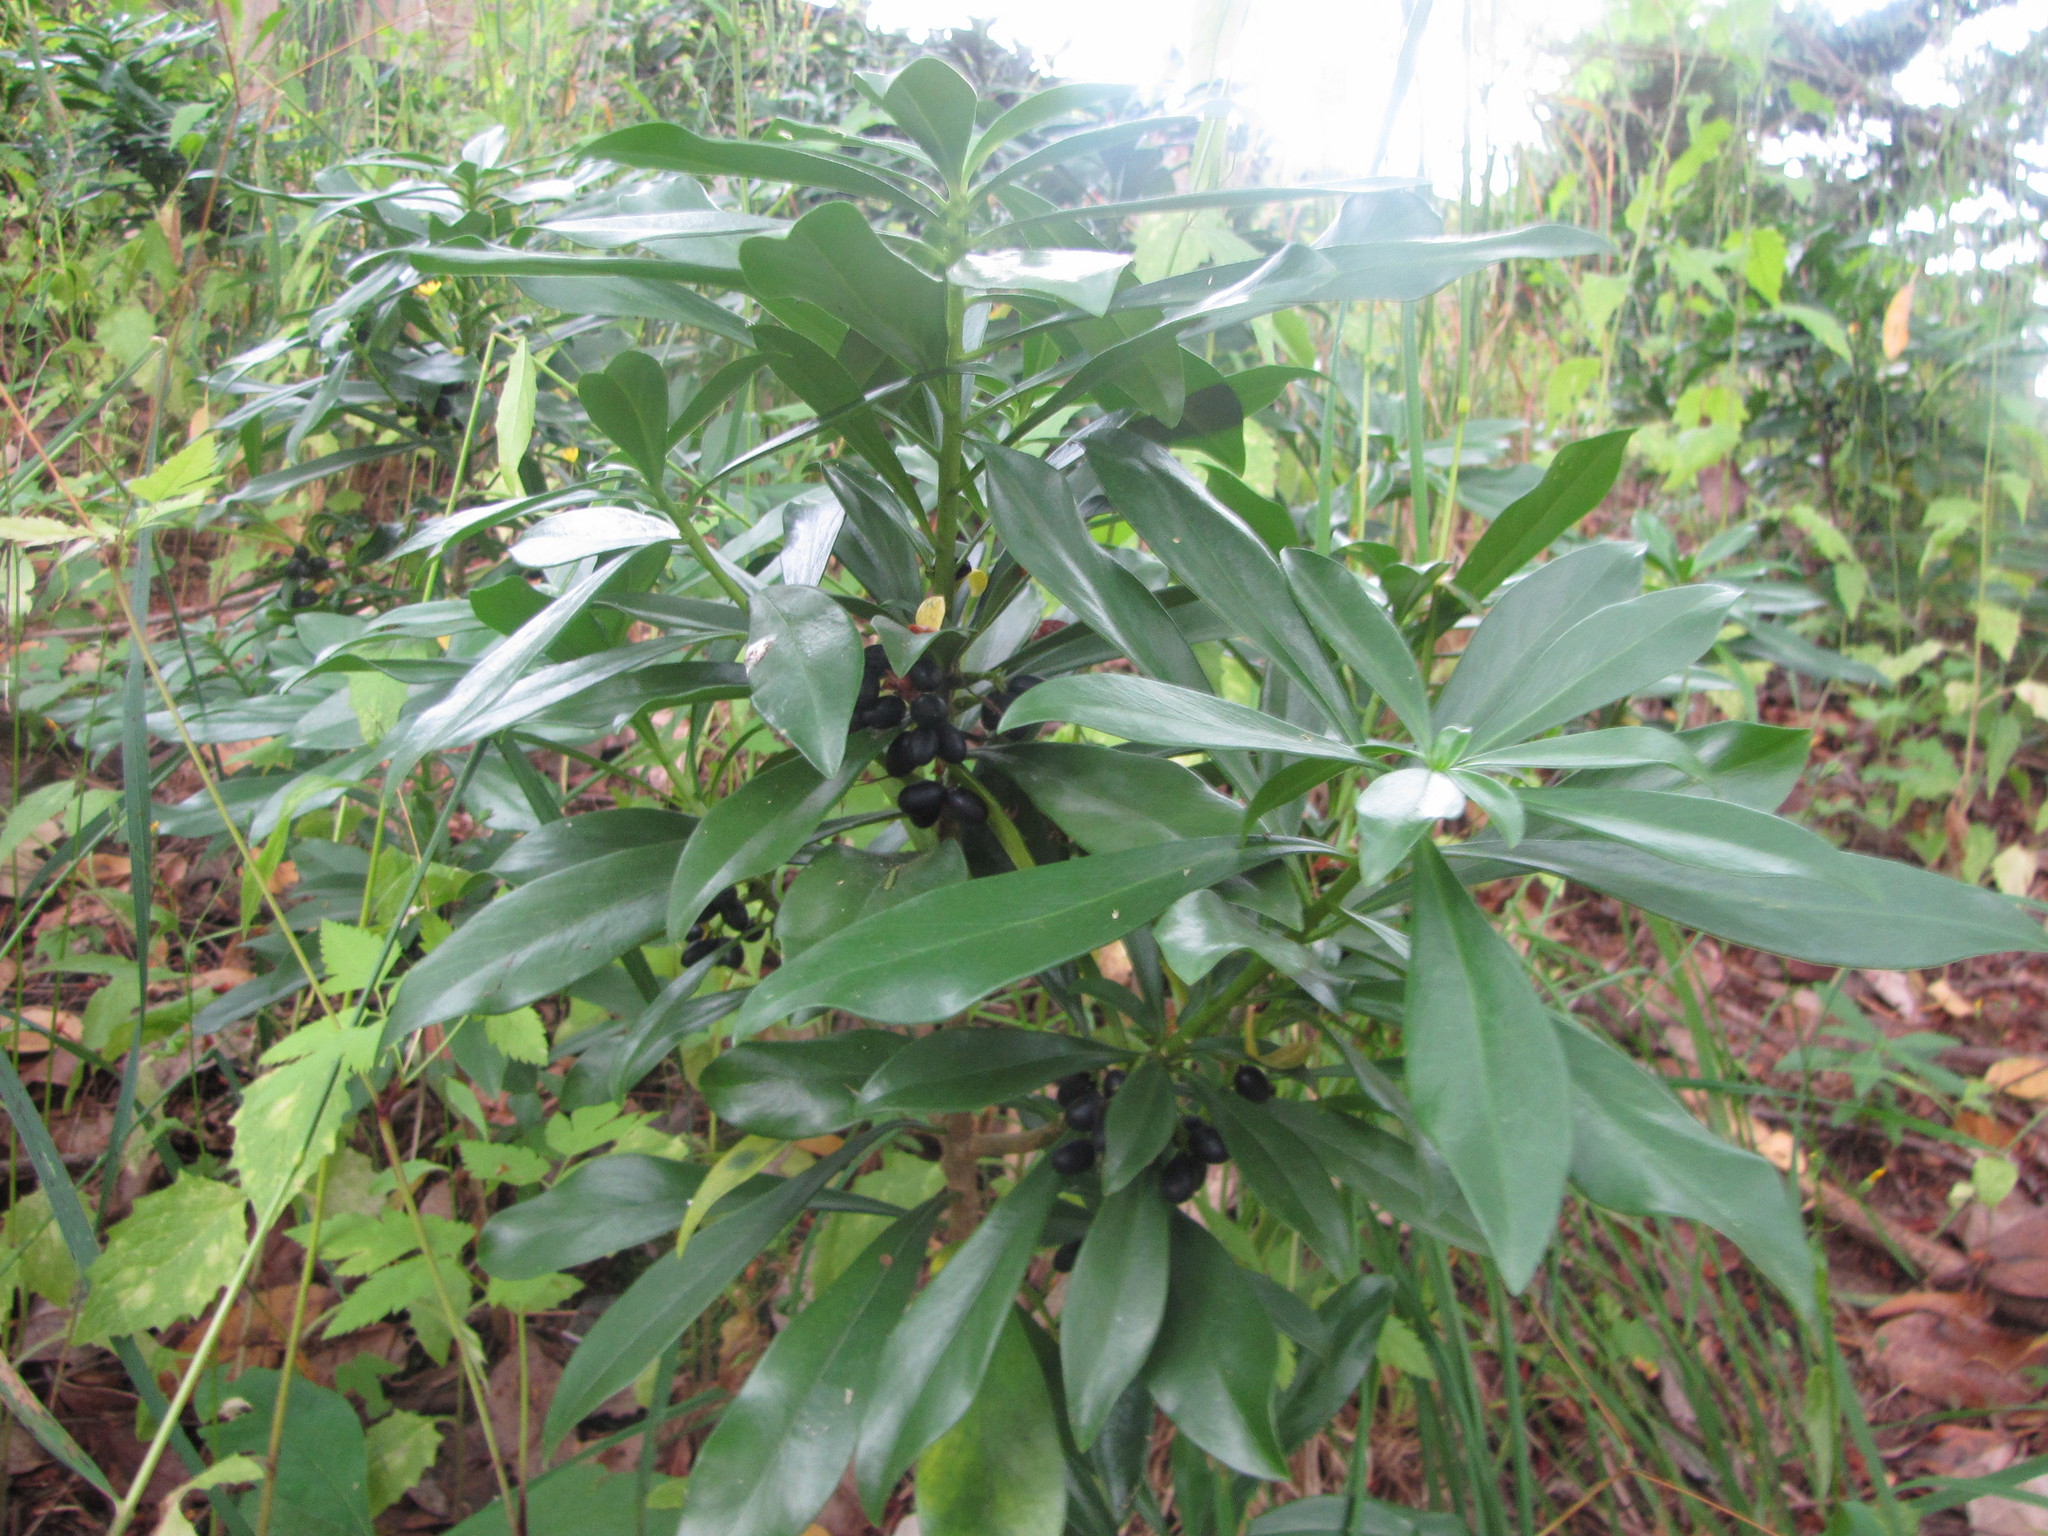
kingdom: Plantae
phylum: Tracheophyta
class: Magnoliopsida
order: Malvales
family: Thymelaeaceae
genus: Daphne
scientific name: Daphne laureola
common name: Spurge-laurel
